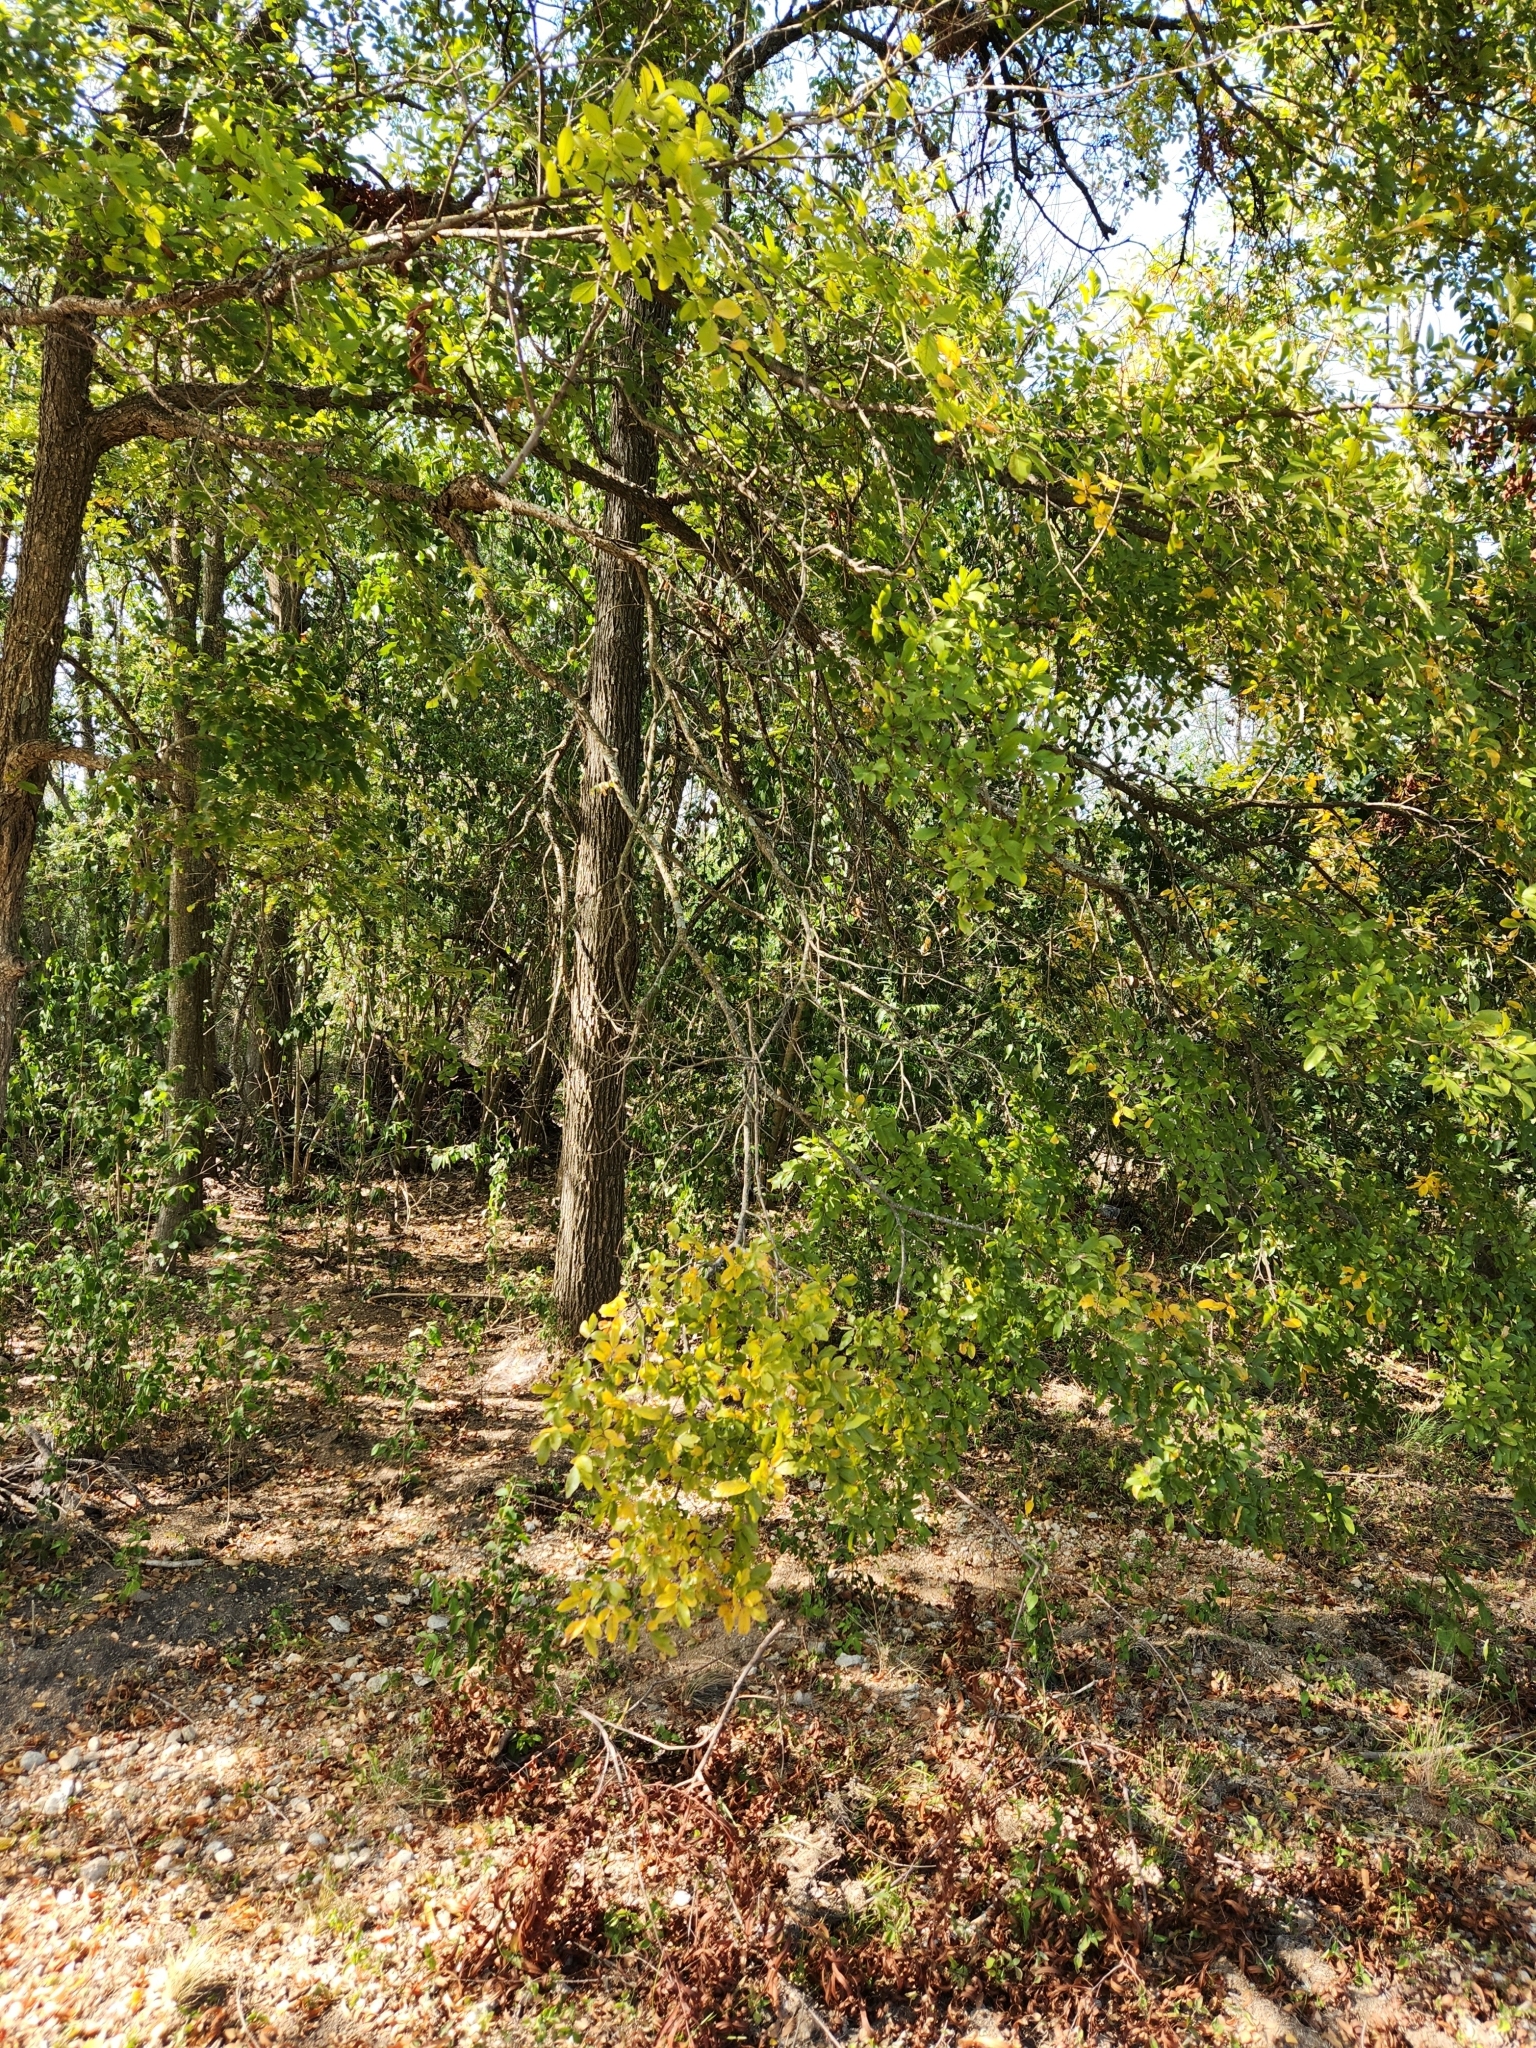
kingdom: Plantae
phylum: Tracheophyta
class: Magnoliopsida
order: Rosales
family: Ulmaceae
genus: Ulmus
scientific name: Ulmus crassifolia
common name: Basket elm
